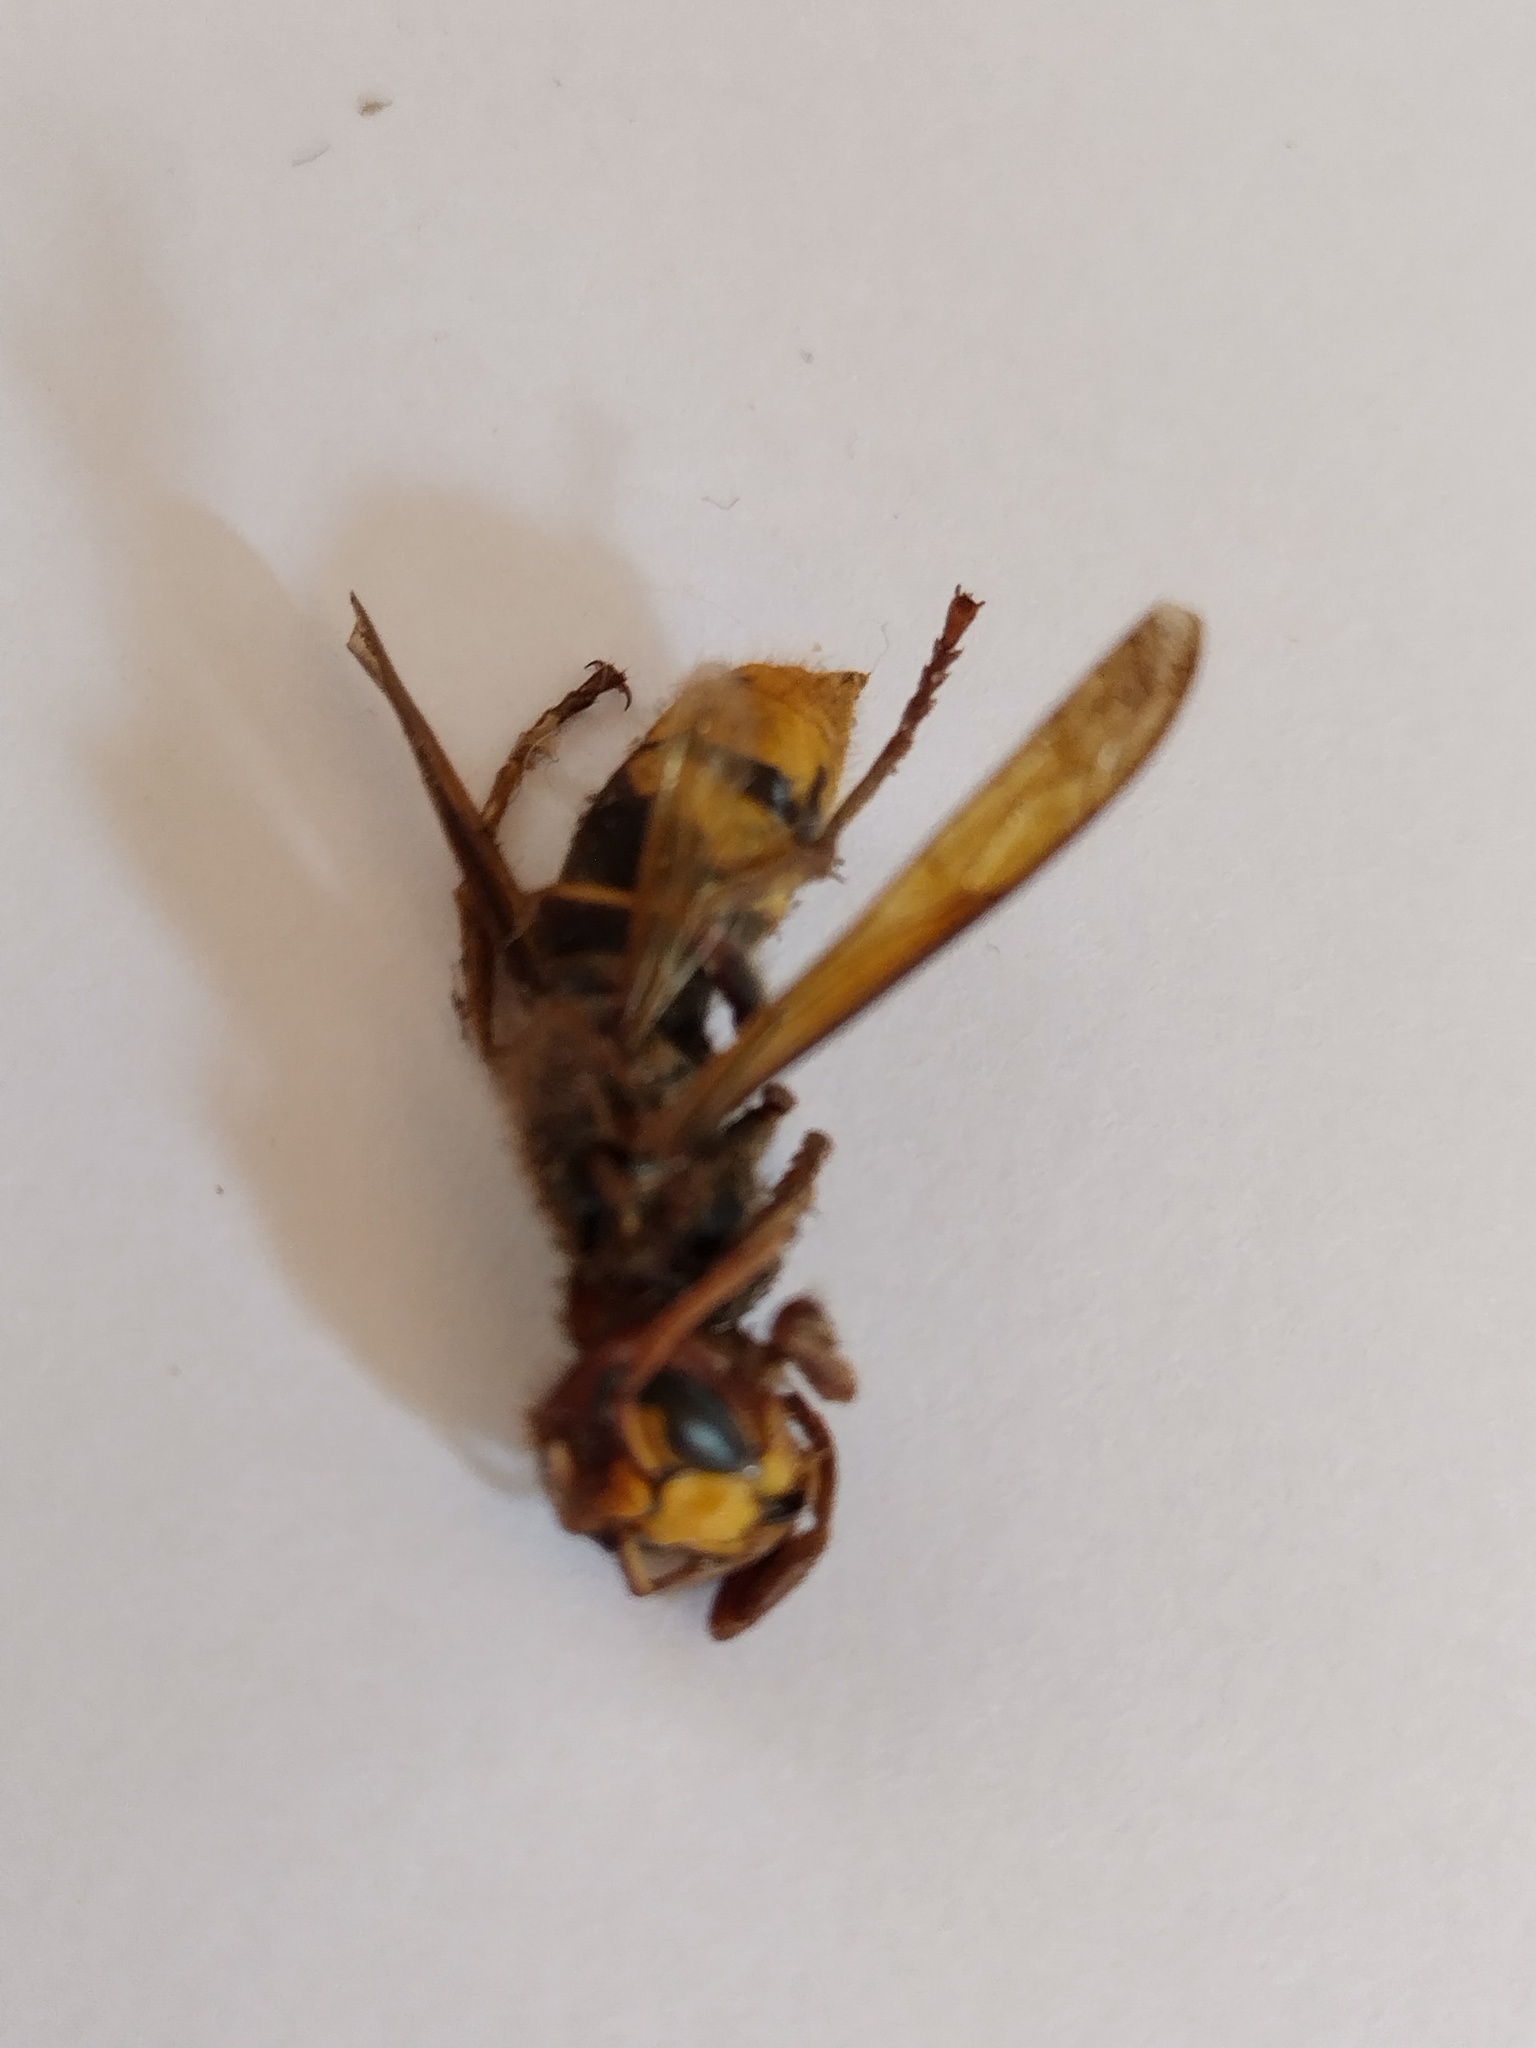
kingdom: Animalia
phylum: Arthropoda
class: Insecta
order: Hymenoptera
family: Vespidae
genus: Vespa
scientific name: Vespa crabro
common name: Hornet
